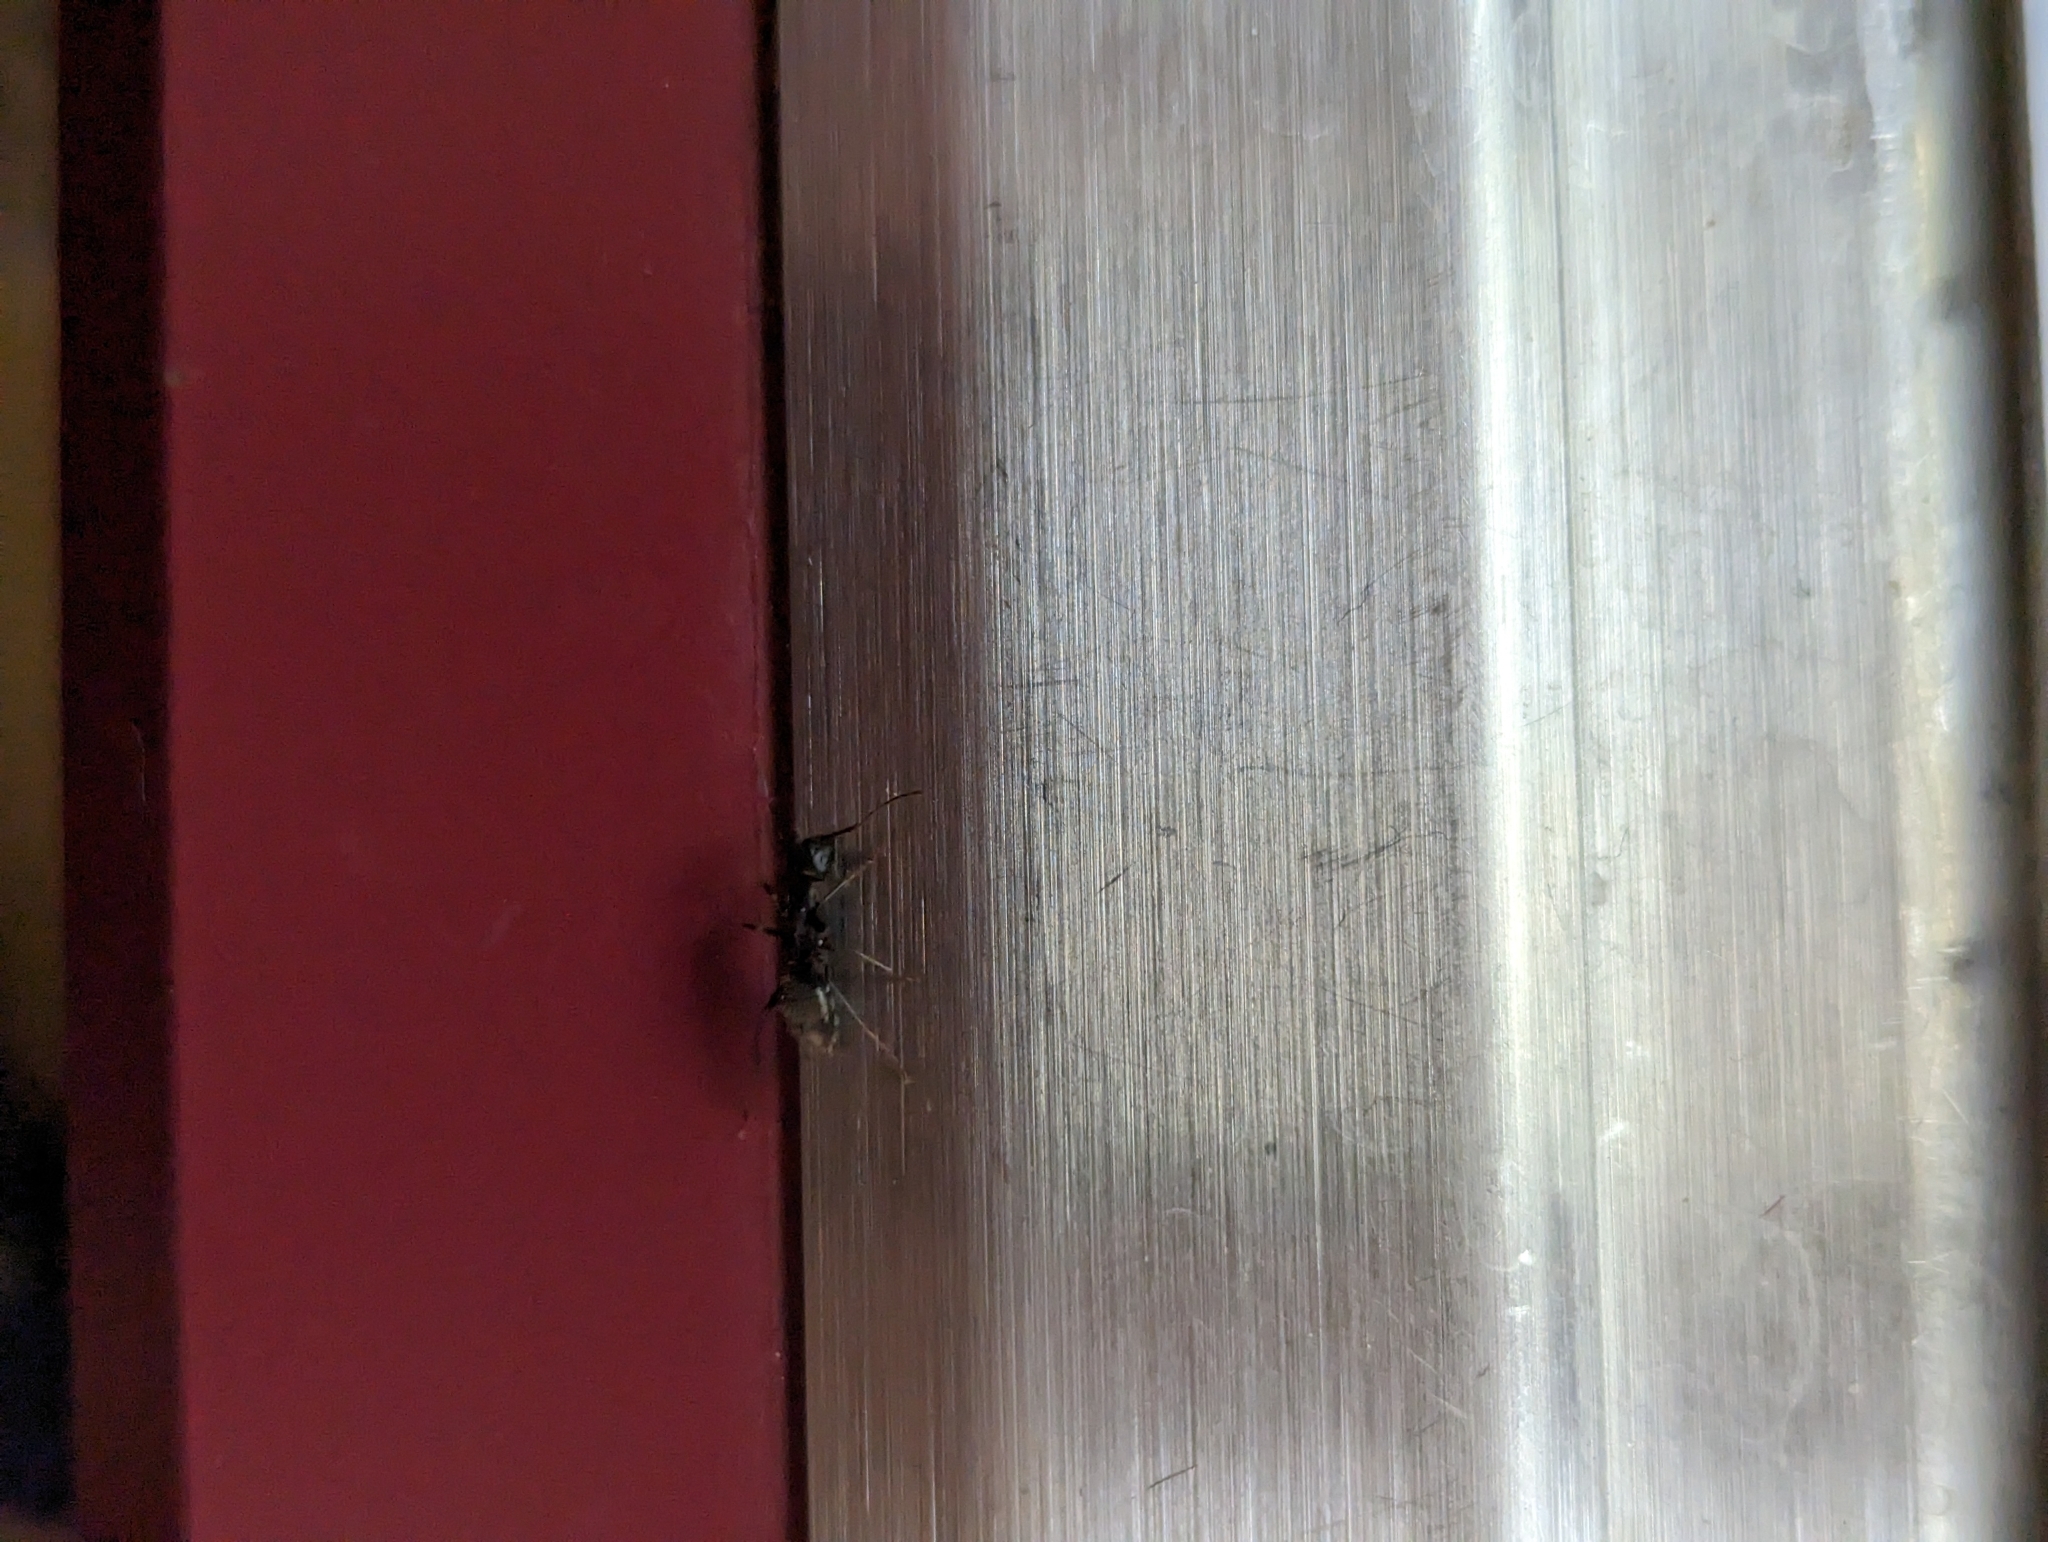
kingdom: Animalia
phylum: Arthropoda
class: Insecta
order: Hymenoptera
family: Formicidae
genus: Camponotus
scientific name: Camponotus pennsylvanicus
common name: Black carpenter ant
